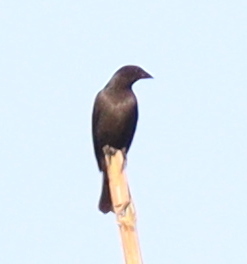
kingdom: Animalia
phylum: Chordata
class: Aves
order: Passeriformes
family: Icteridae
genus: Molothrus
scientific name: Molothrus bonariensis
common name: Shiny cowbird
